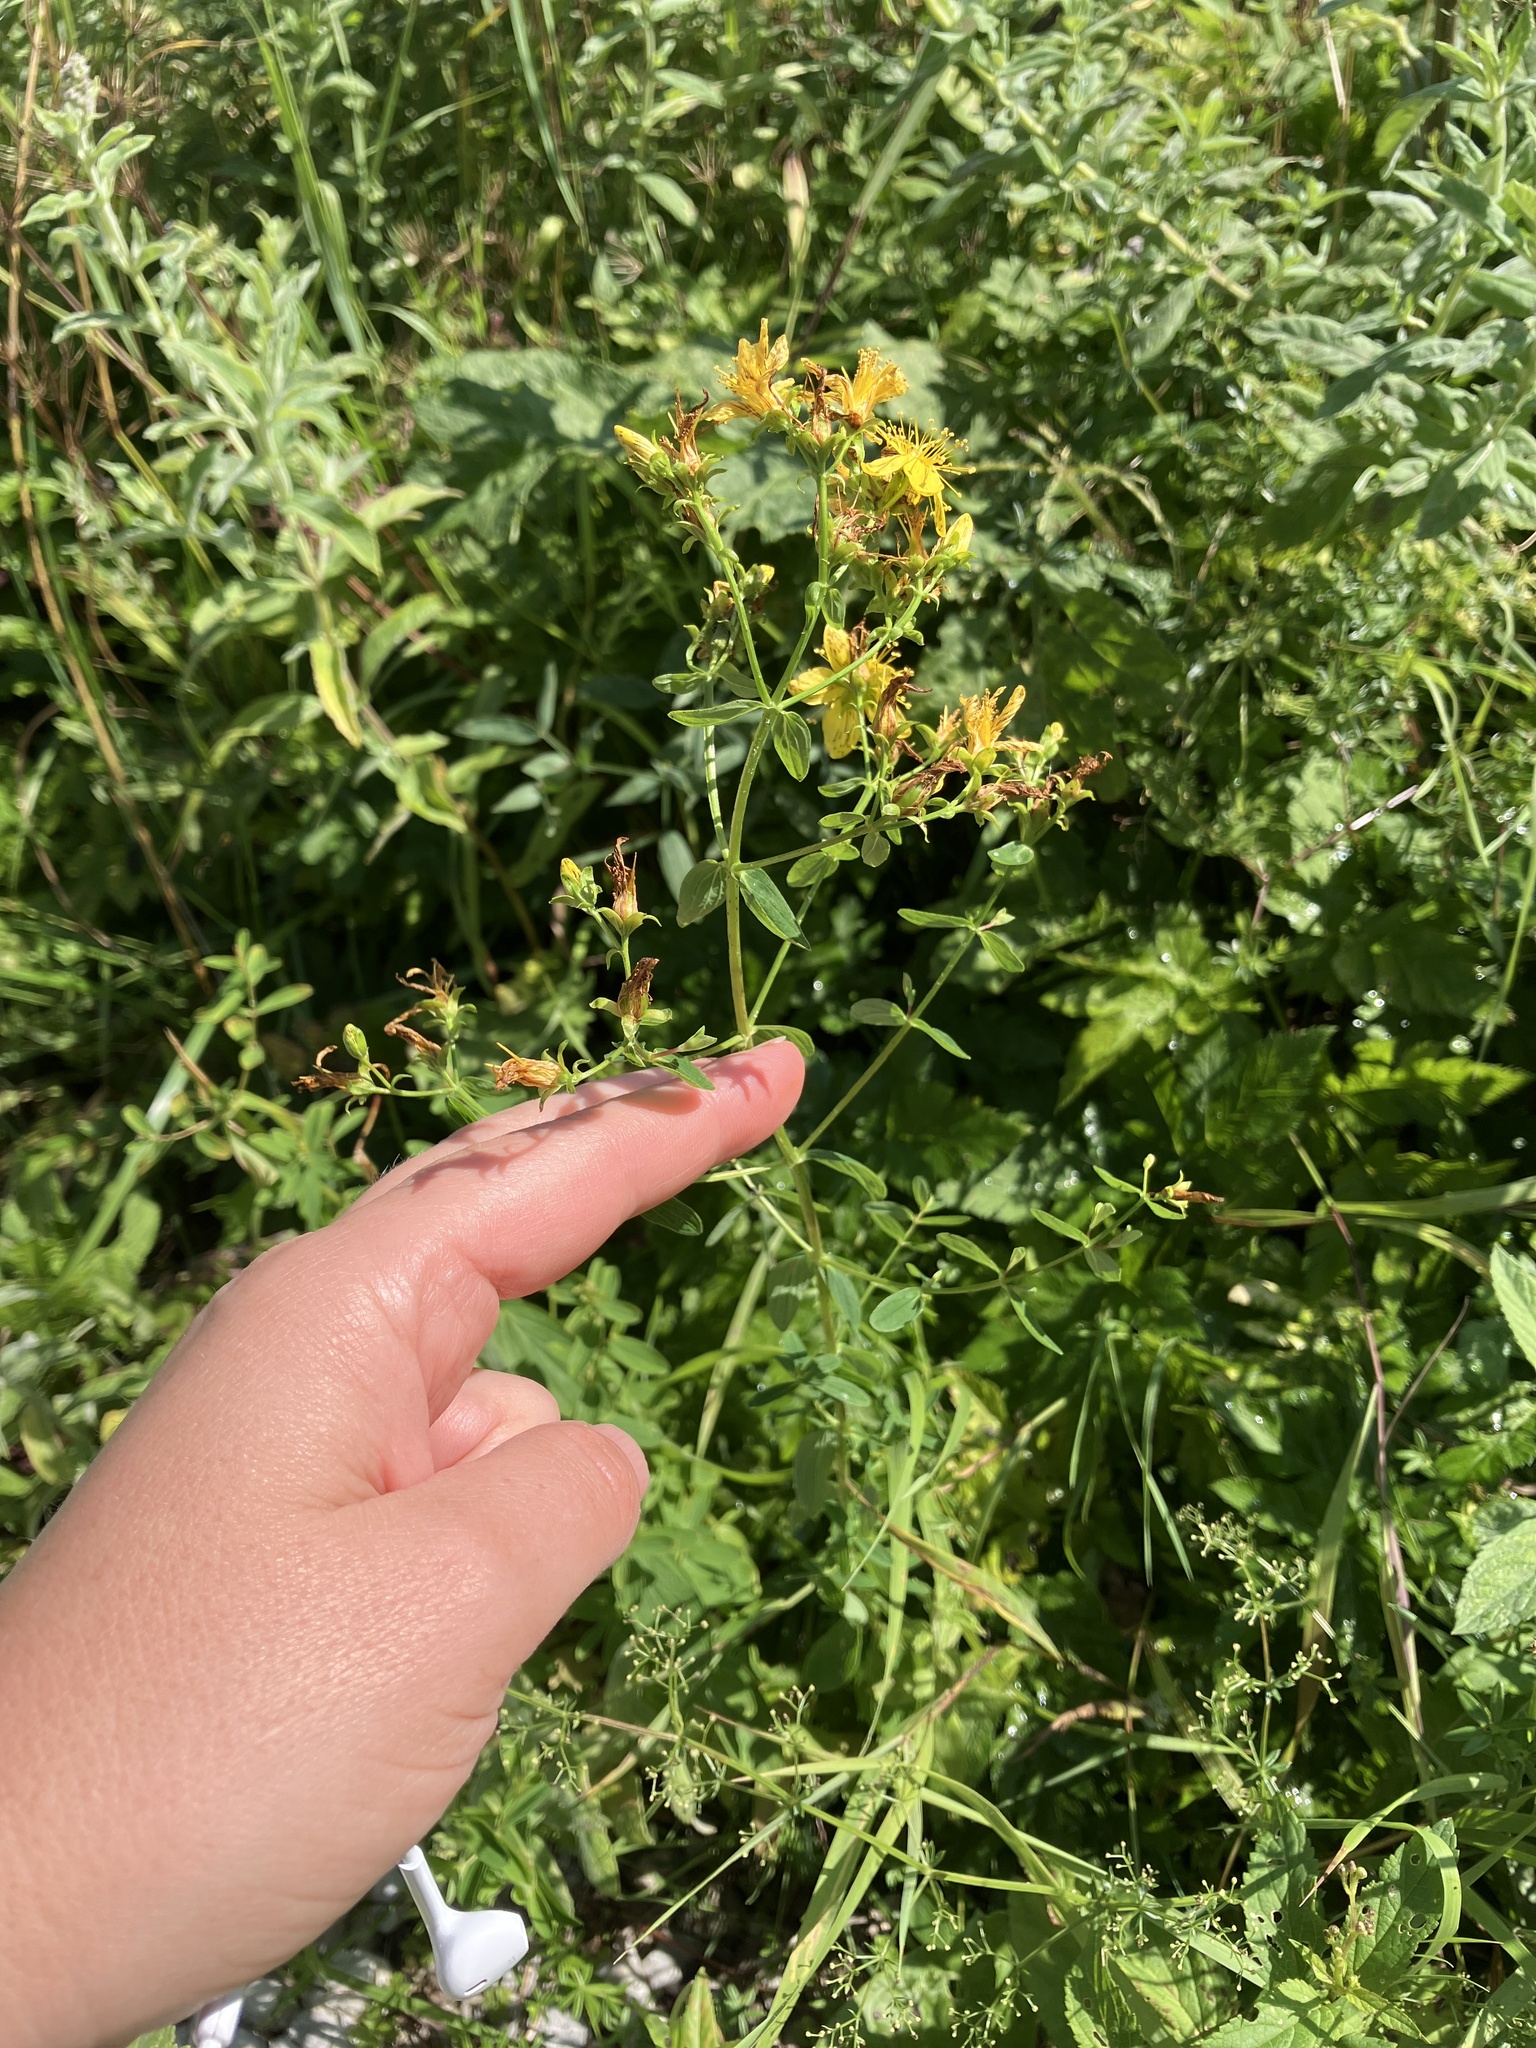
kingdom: Plantae
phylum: Tracheophyta
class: Magnoliopsida
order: Malpighiales
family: Hypericaceae
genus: Hypericum
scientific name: Hypericum maculatum
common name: Imperforate st. john's-wort
